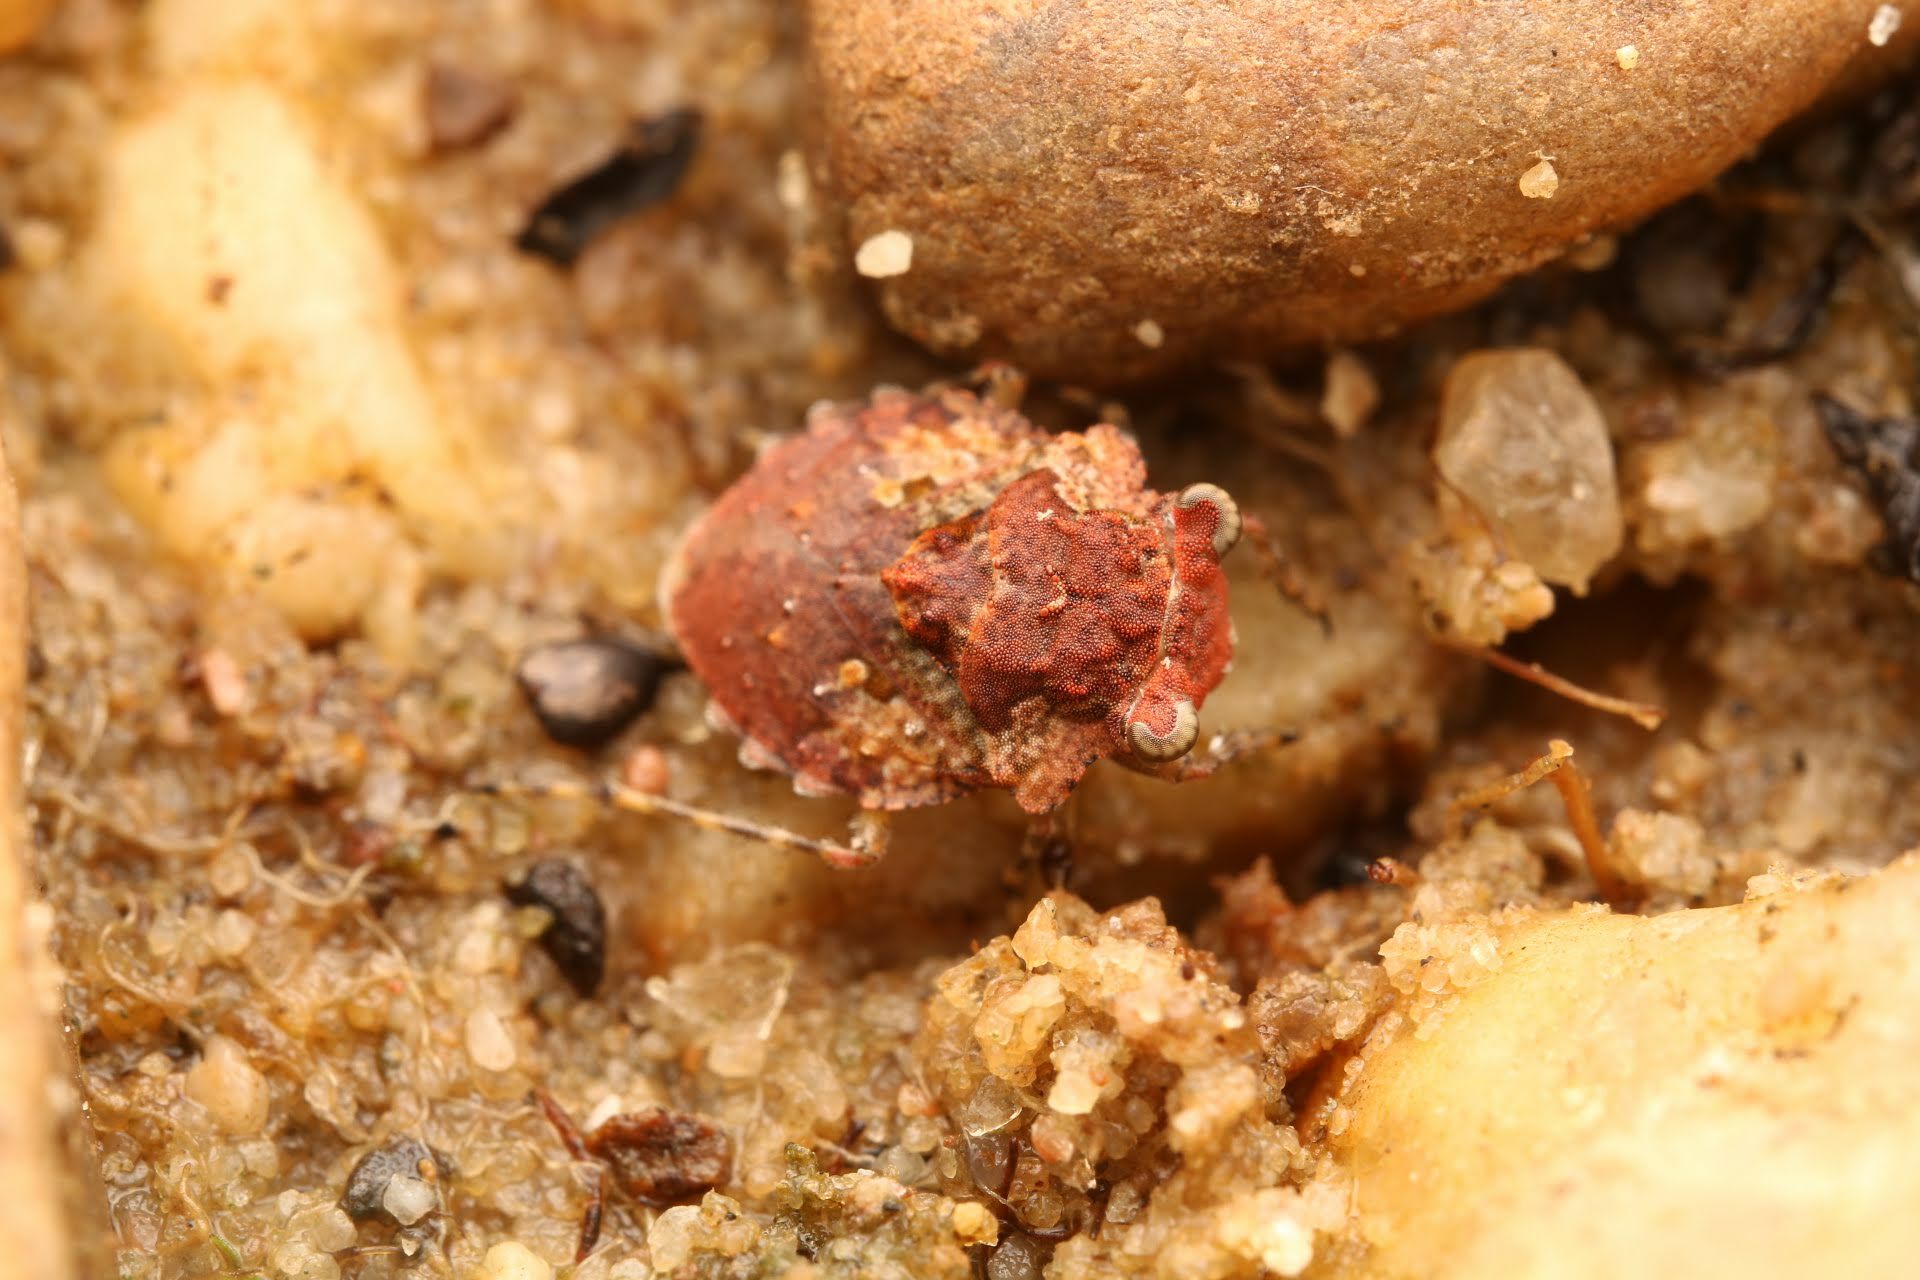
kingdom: Animalia
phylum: Arthropoda
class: Insecta
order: Hemiptera
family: Gelastocoridae
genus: Gelastocoris
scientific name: Gelastocoris oculatus
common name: Toad bug
